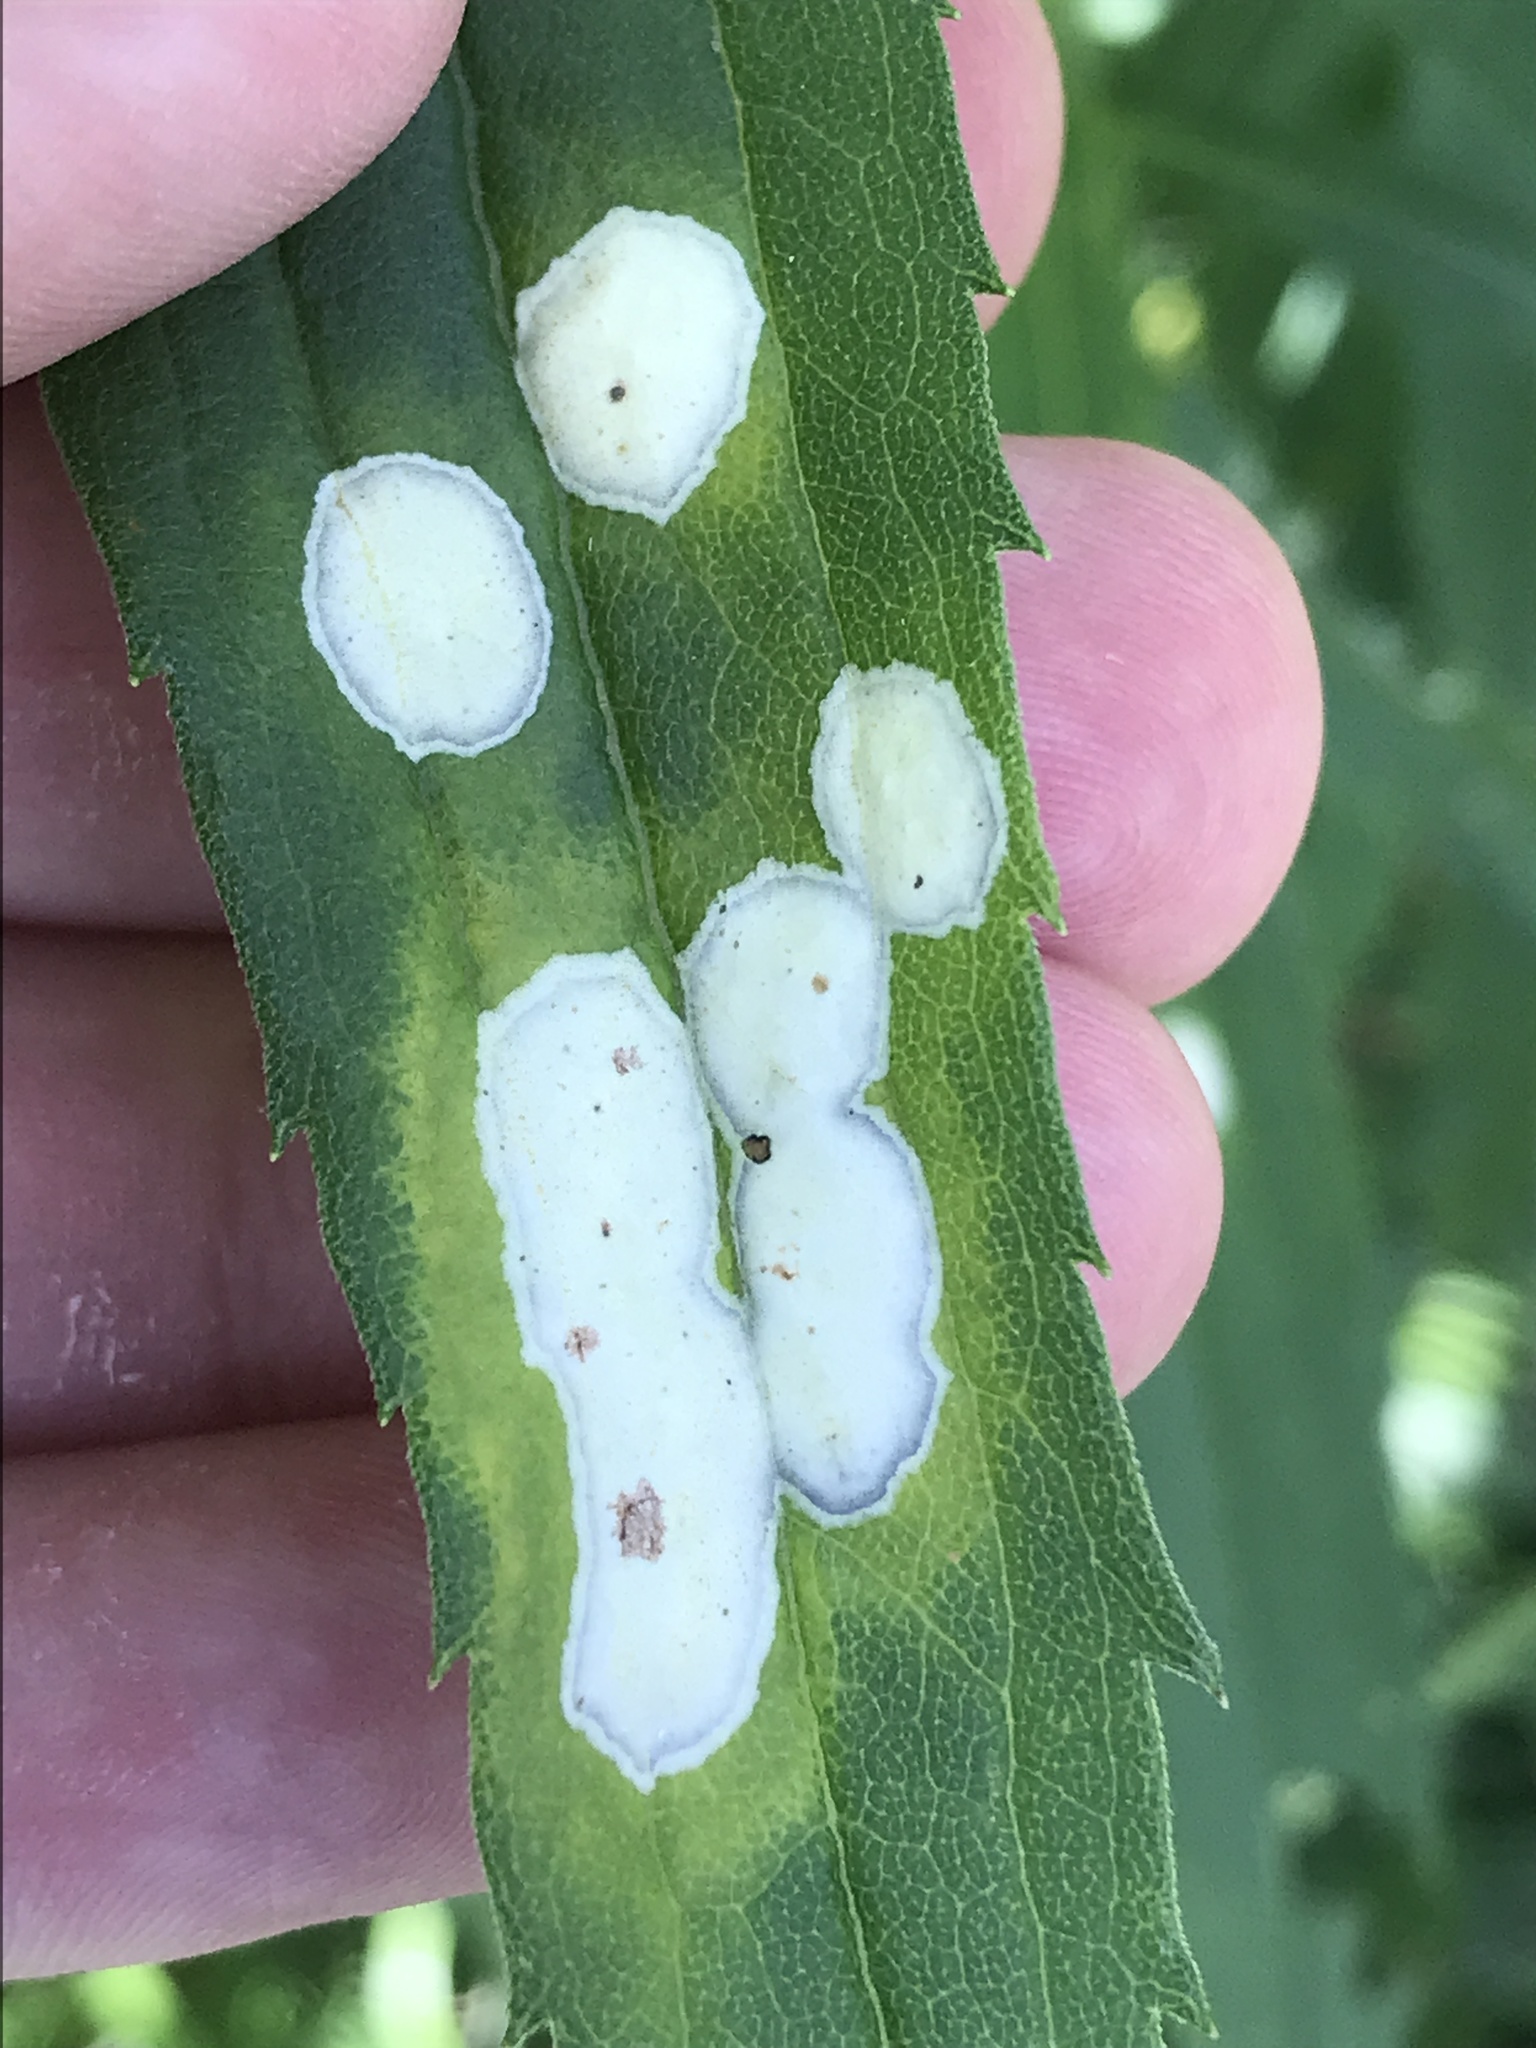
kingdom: Animalia
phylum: Arthropoda
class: Insecta
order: Diptera
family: Cecidomyiidae
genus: Asteromyia
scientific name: Asteromyia carbonifera
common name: Carbonifera goldenrod gall midge
